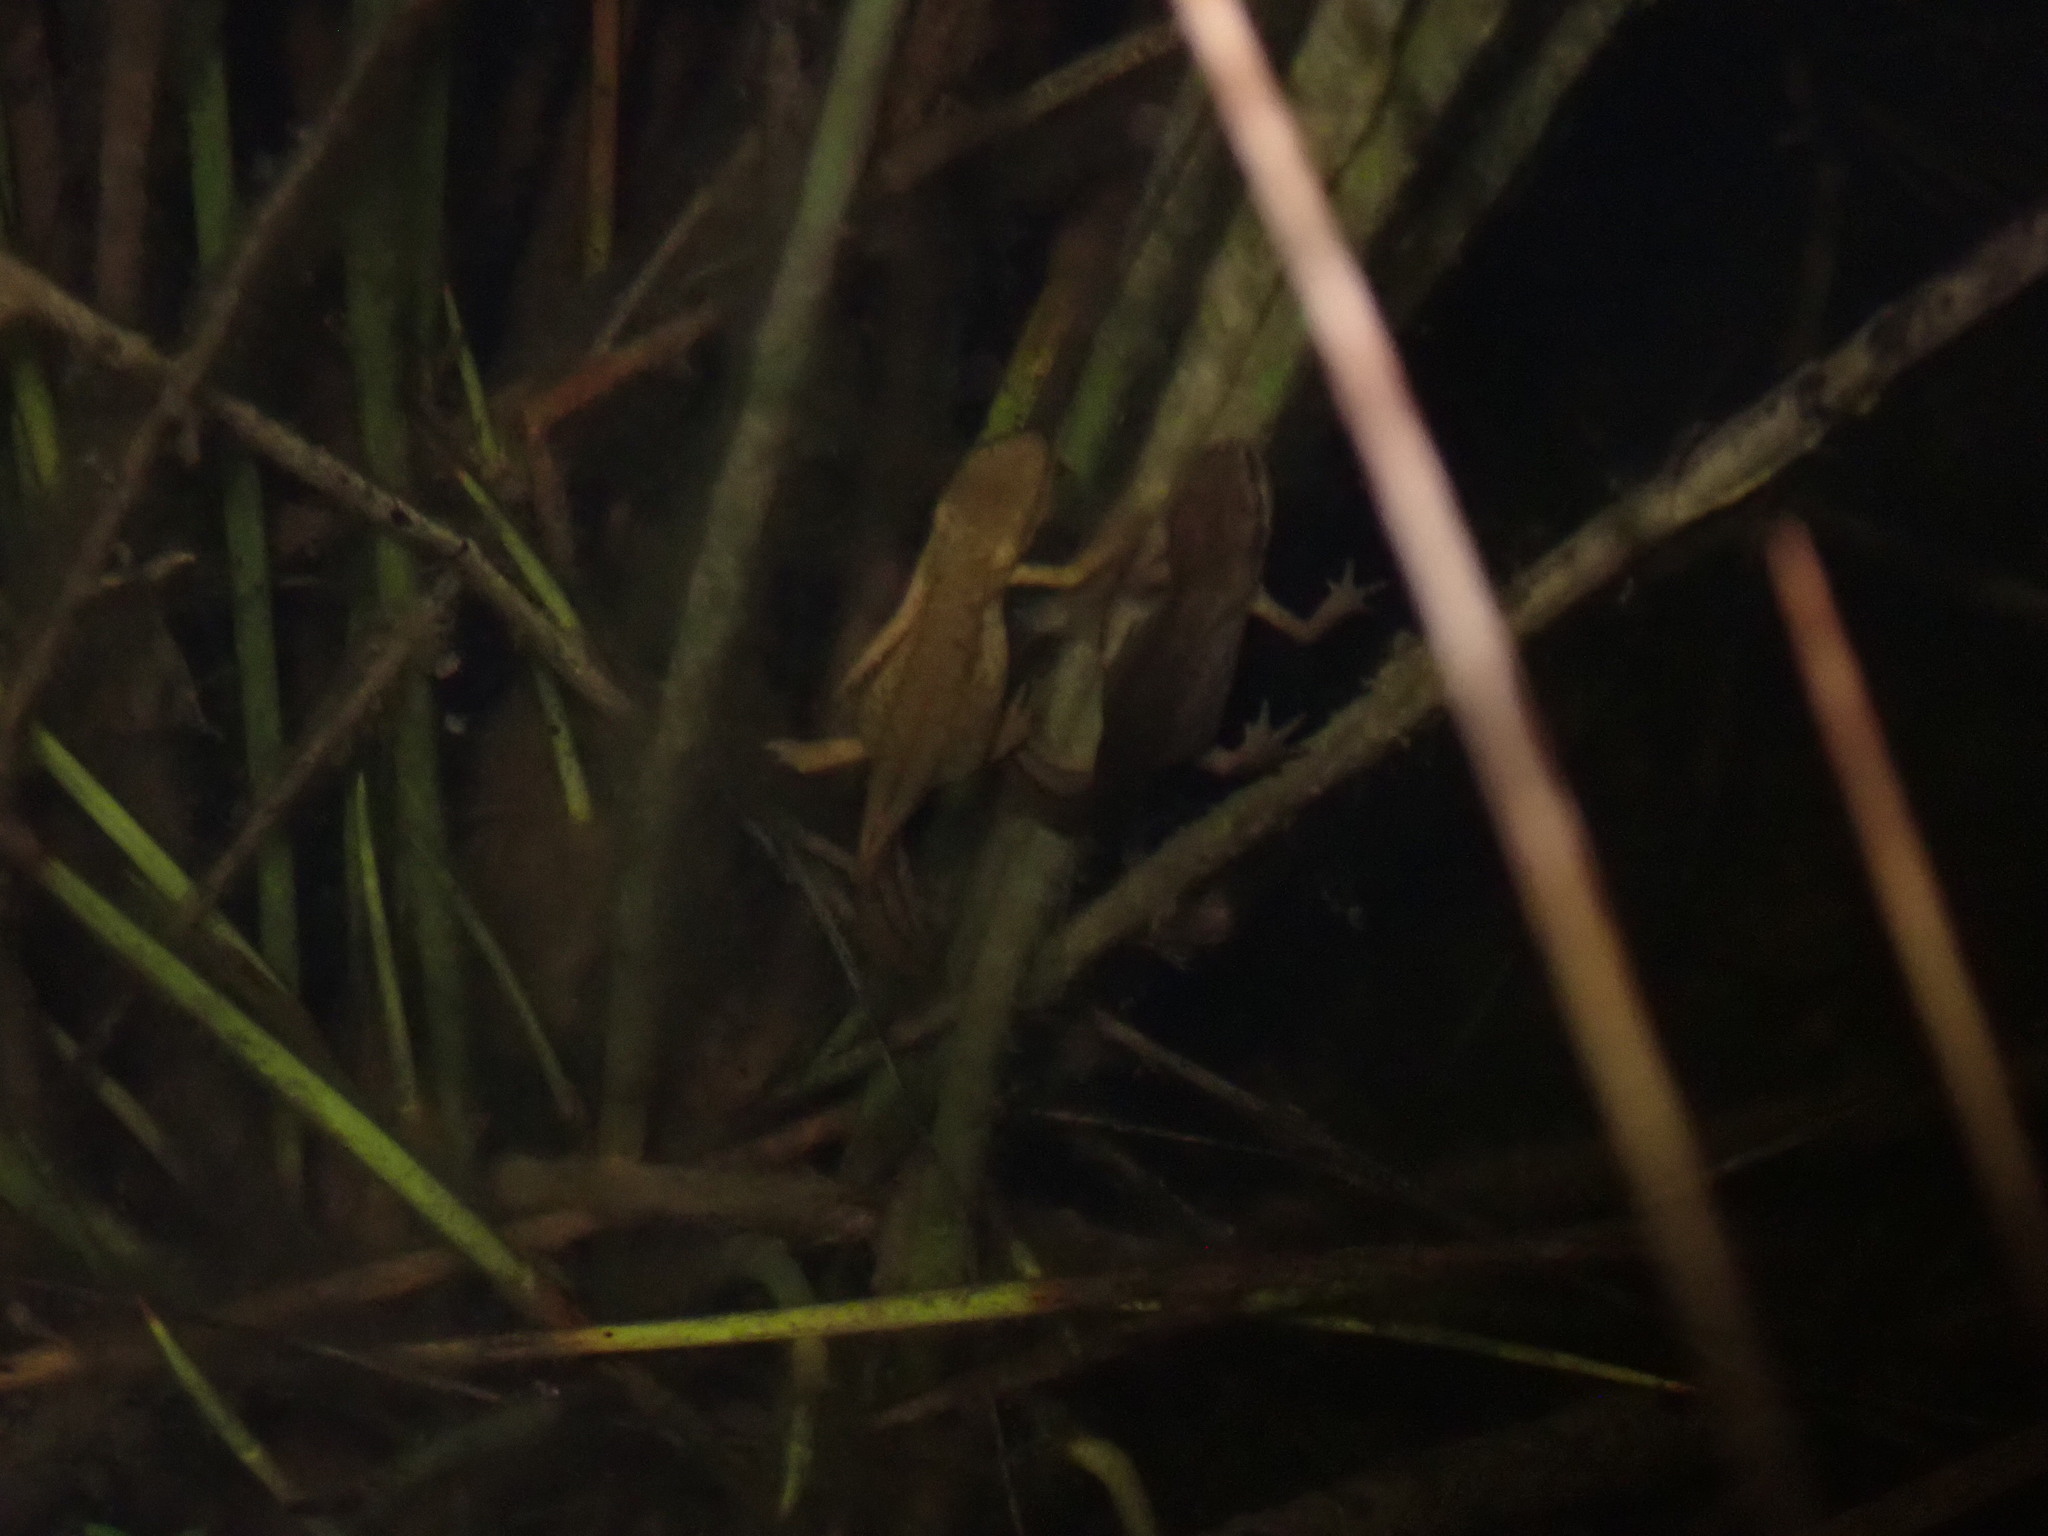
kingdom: Animalia
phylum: Chordata
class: Amphibia
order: Caudata
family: Salamandridae
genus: Lissotriton
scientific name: Lissotriton helveticus
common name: Palmate newt
